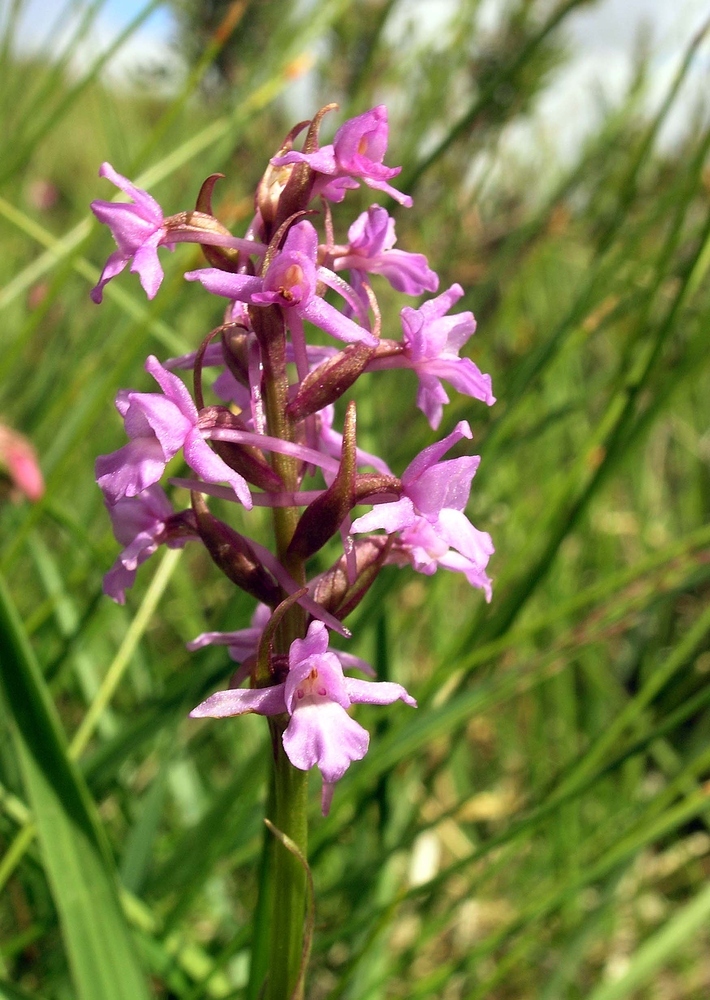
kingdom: Plantae
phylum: Tracheophyta
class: Liliopsida
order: Asparagales
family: Orchidaceae
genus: Gymnadenia
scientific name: Gymnadenia borealis
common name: Heath fragrant orchid
